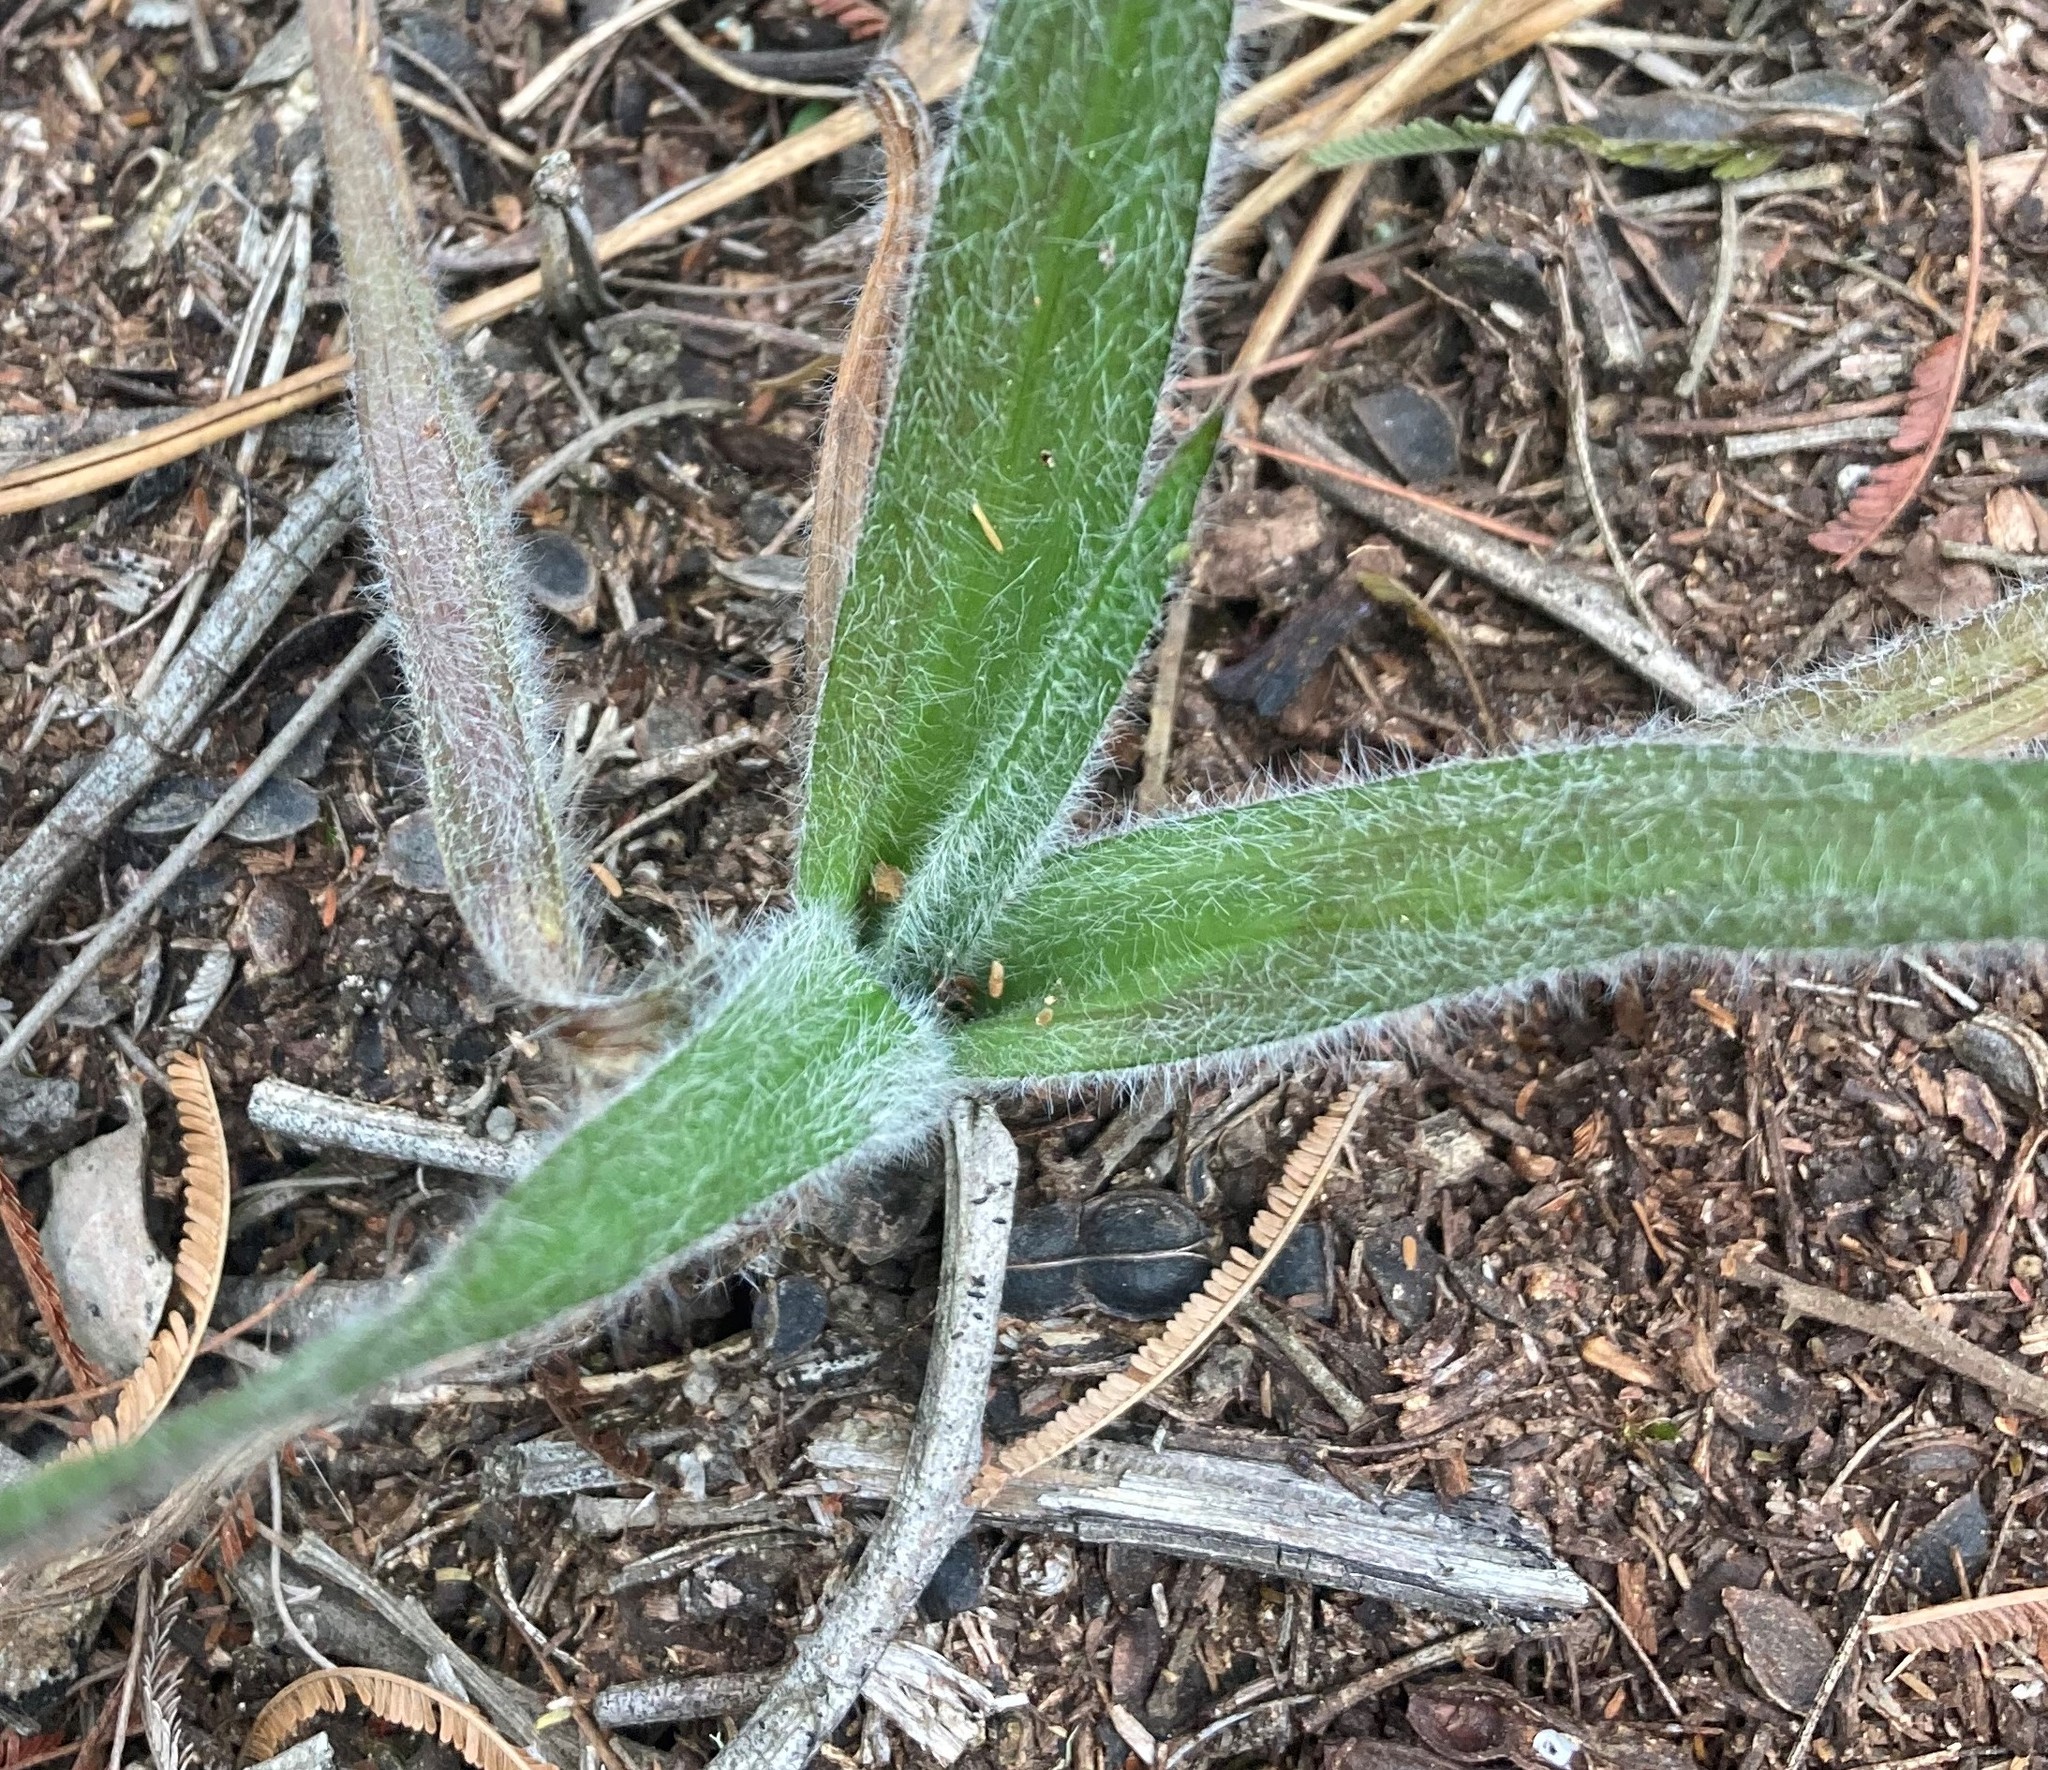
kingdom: Plantae
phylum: Tracheophyta
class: Liliopsida
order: Asparagales
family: Hypoxidaceae
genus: Hypoxis
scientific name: Hypoxis sobolifera
